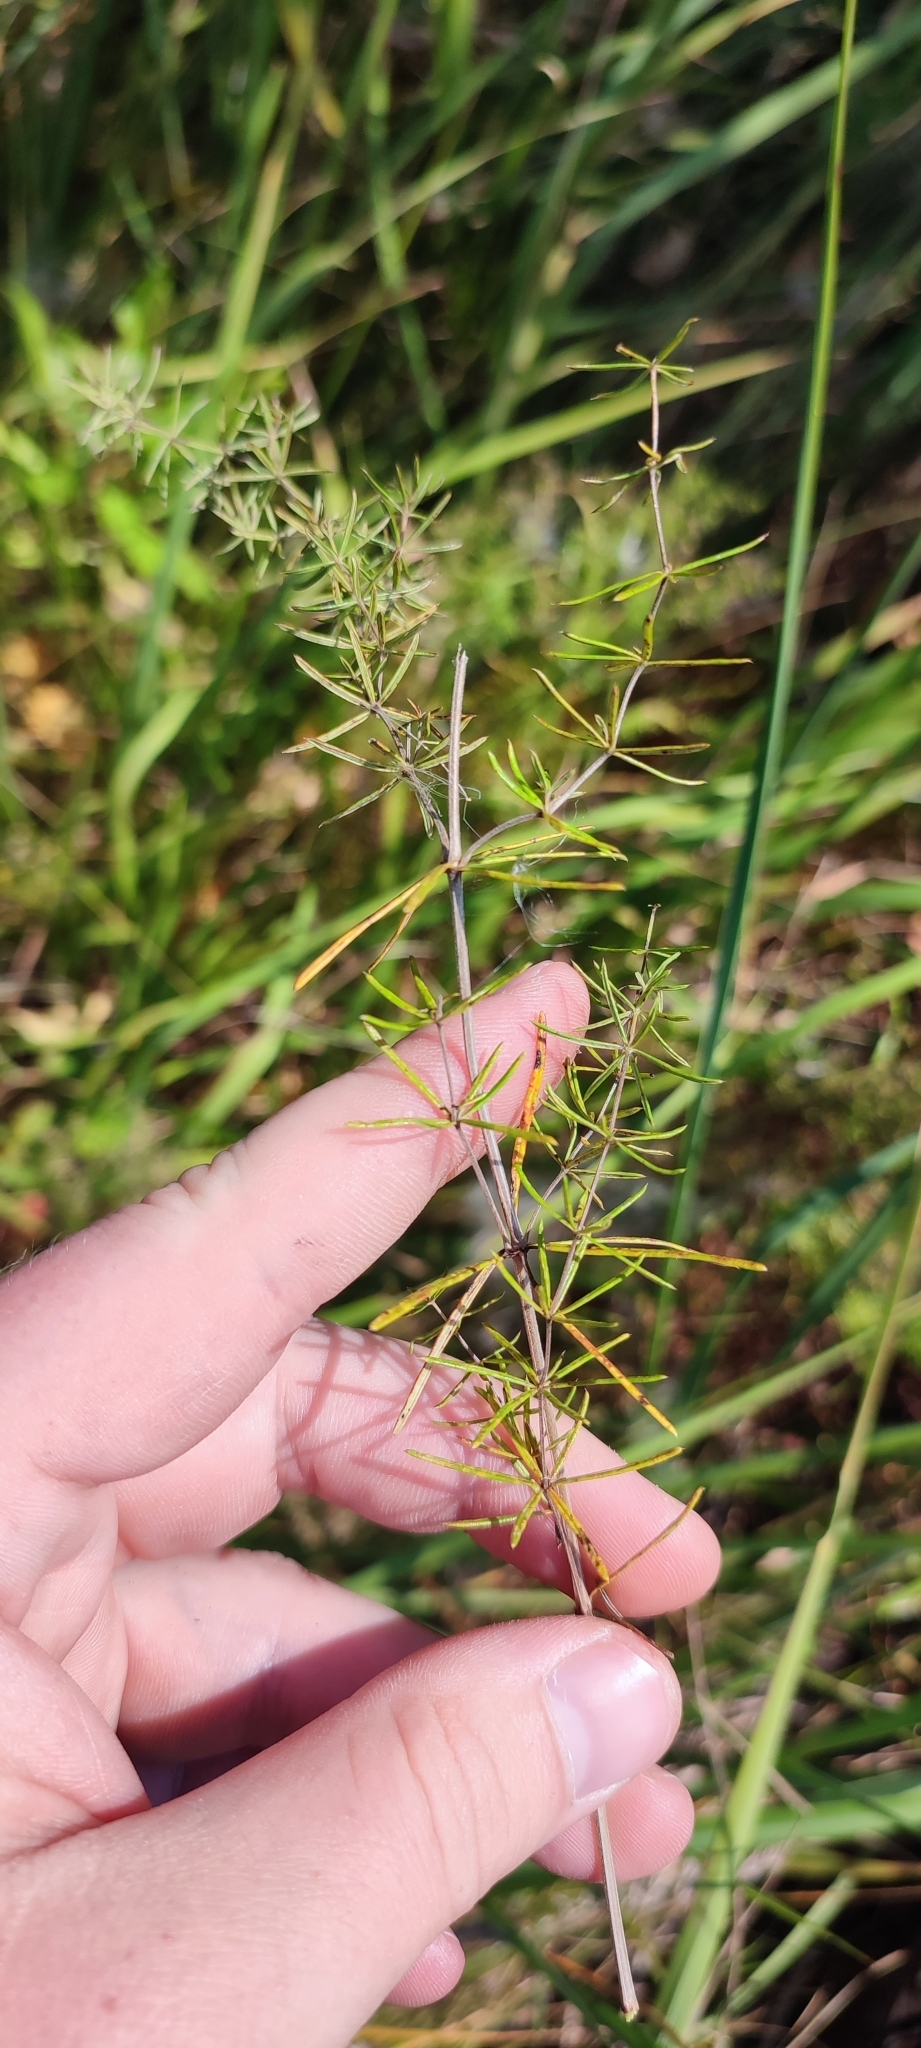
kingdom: Plantae
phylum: Tracheophyta
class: Magnoliopsida
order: Gentianales
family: Rubiaceae
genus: Galium
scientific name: Galium verum
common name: Lady's bedstraw
